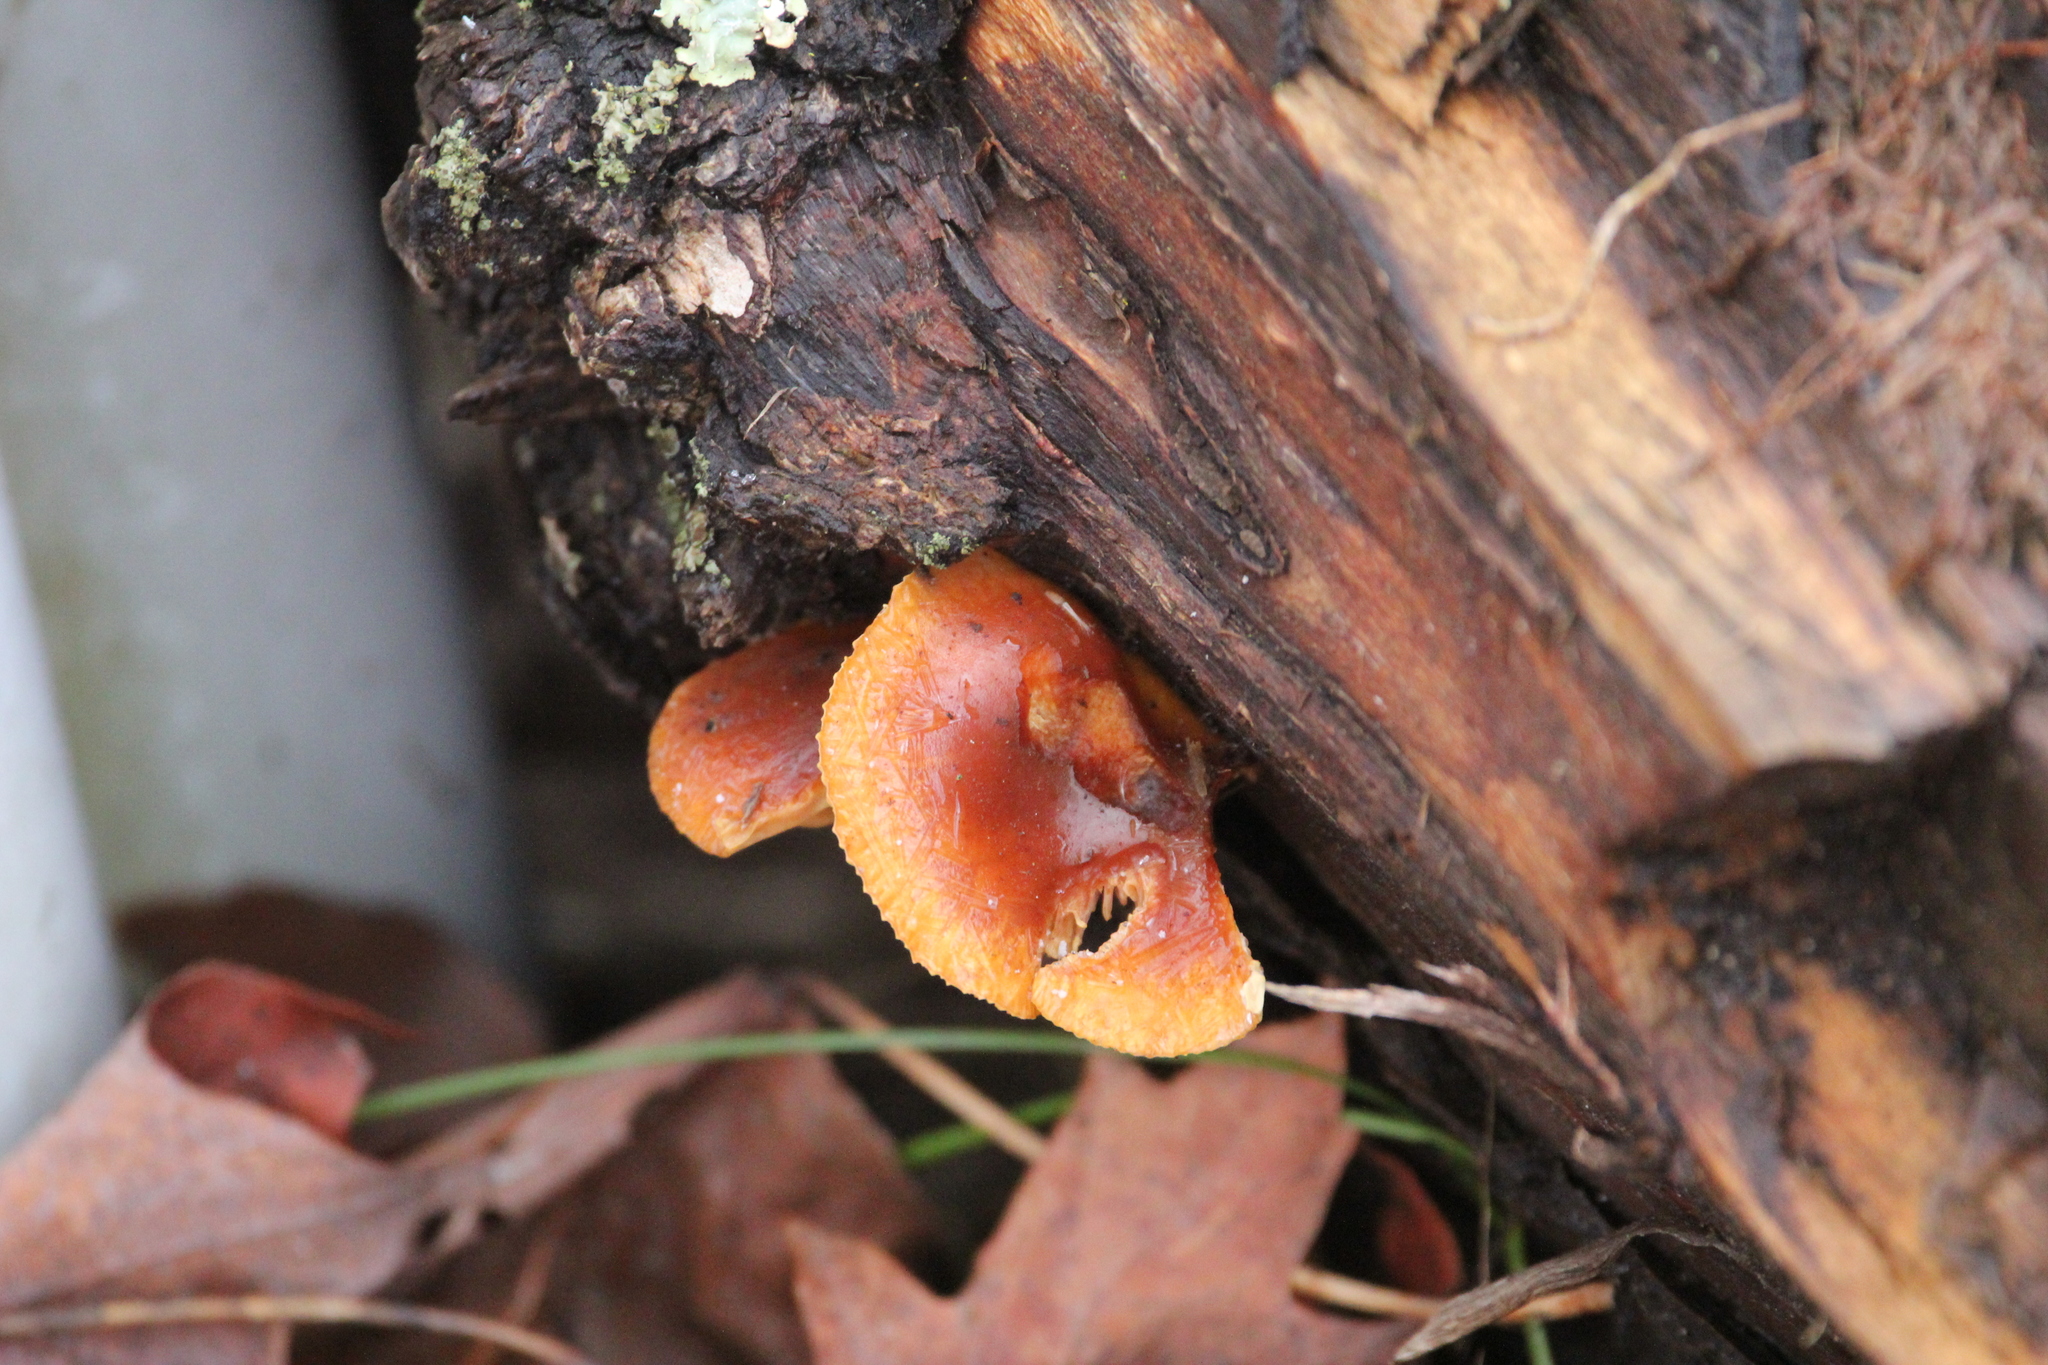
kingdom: Fungi
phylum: Basidiomycota
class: Agaricomycetes
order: Agaricales
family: Physalacriaceae
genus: Flammulina
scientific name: Flammulina velutipes
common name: Velvet shank
